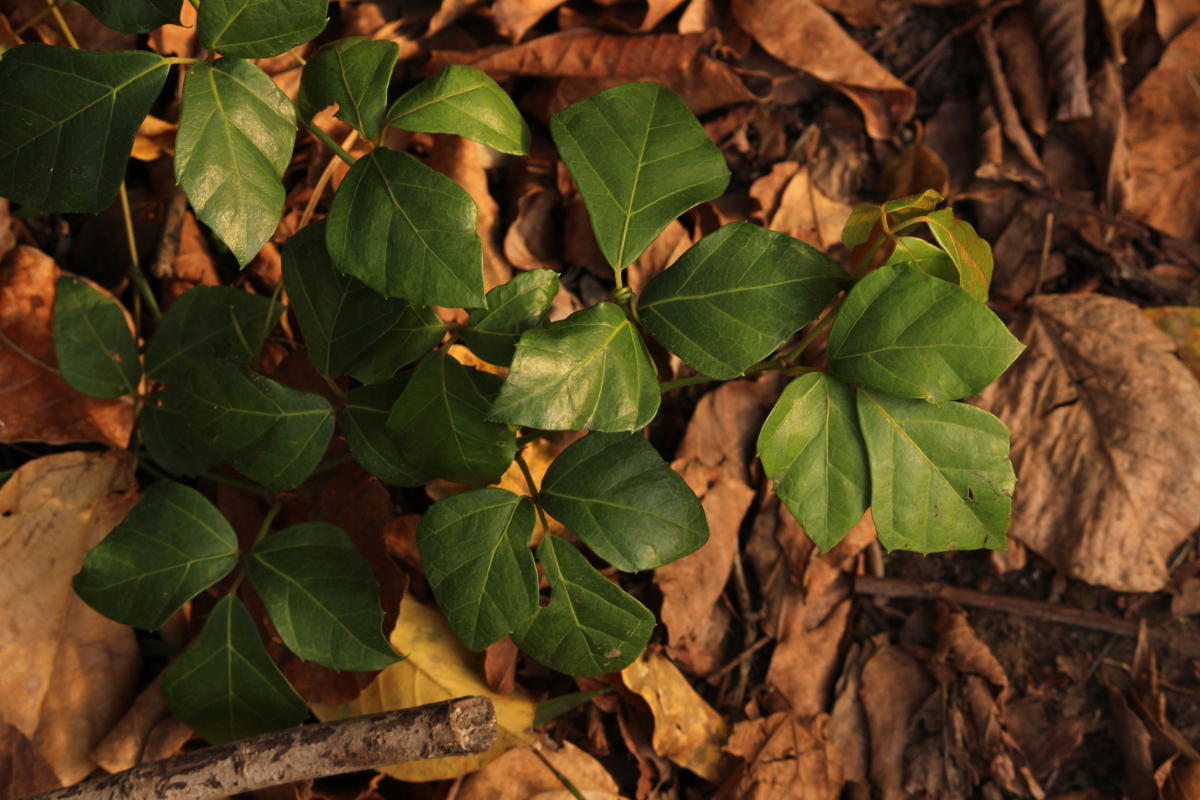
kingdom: Plantae
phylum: Tracheophyta
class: Magnoliopsida
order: Vitales
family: Vitaceae
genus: Rhoicissus
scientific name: Rhoicissus rhomboidea
